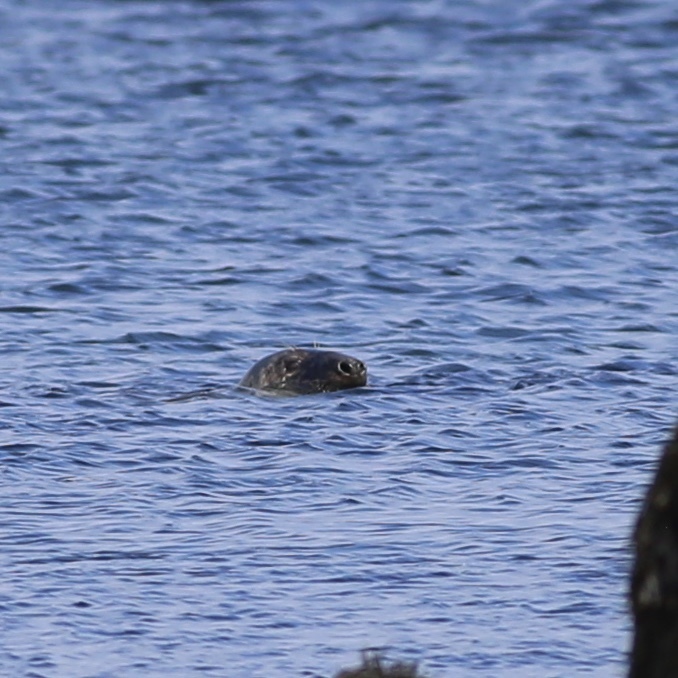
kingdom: Animalia
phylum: Chordata
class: Mammalia
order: Carnivora
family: Phocidae
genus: Halichoerus
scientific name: Halichoerus grypus
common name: Grey seal
